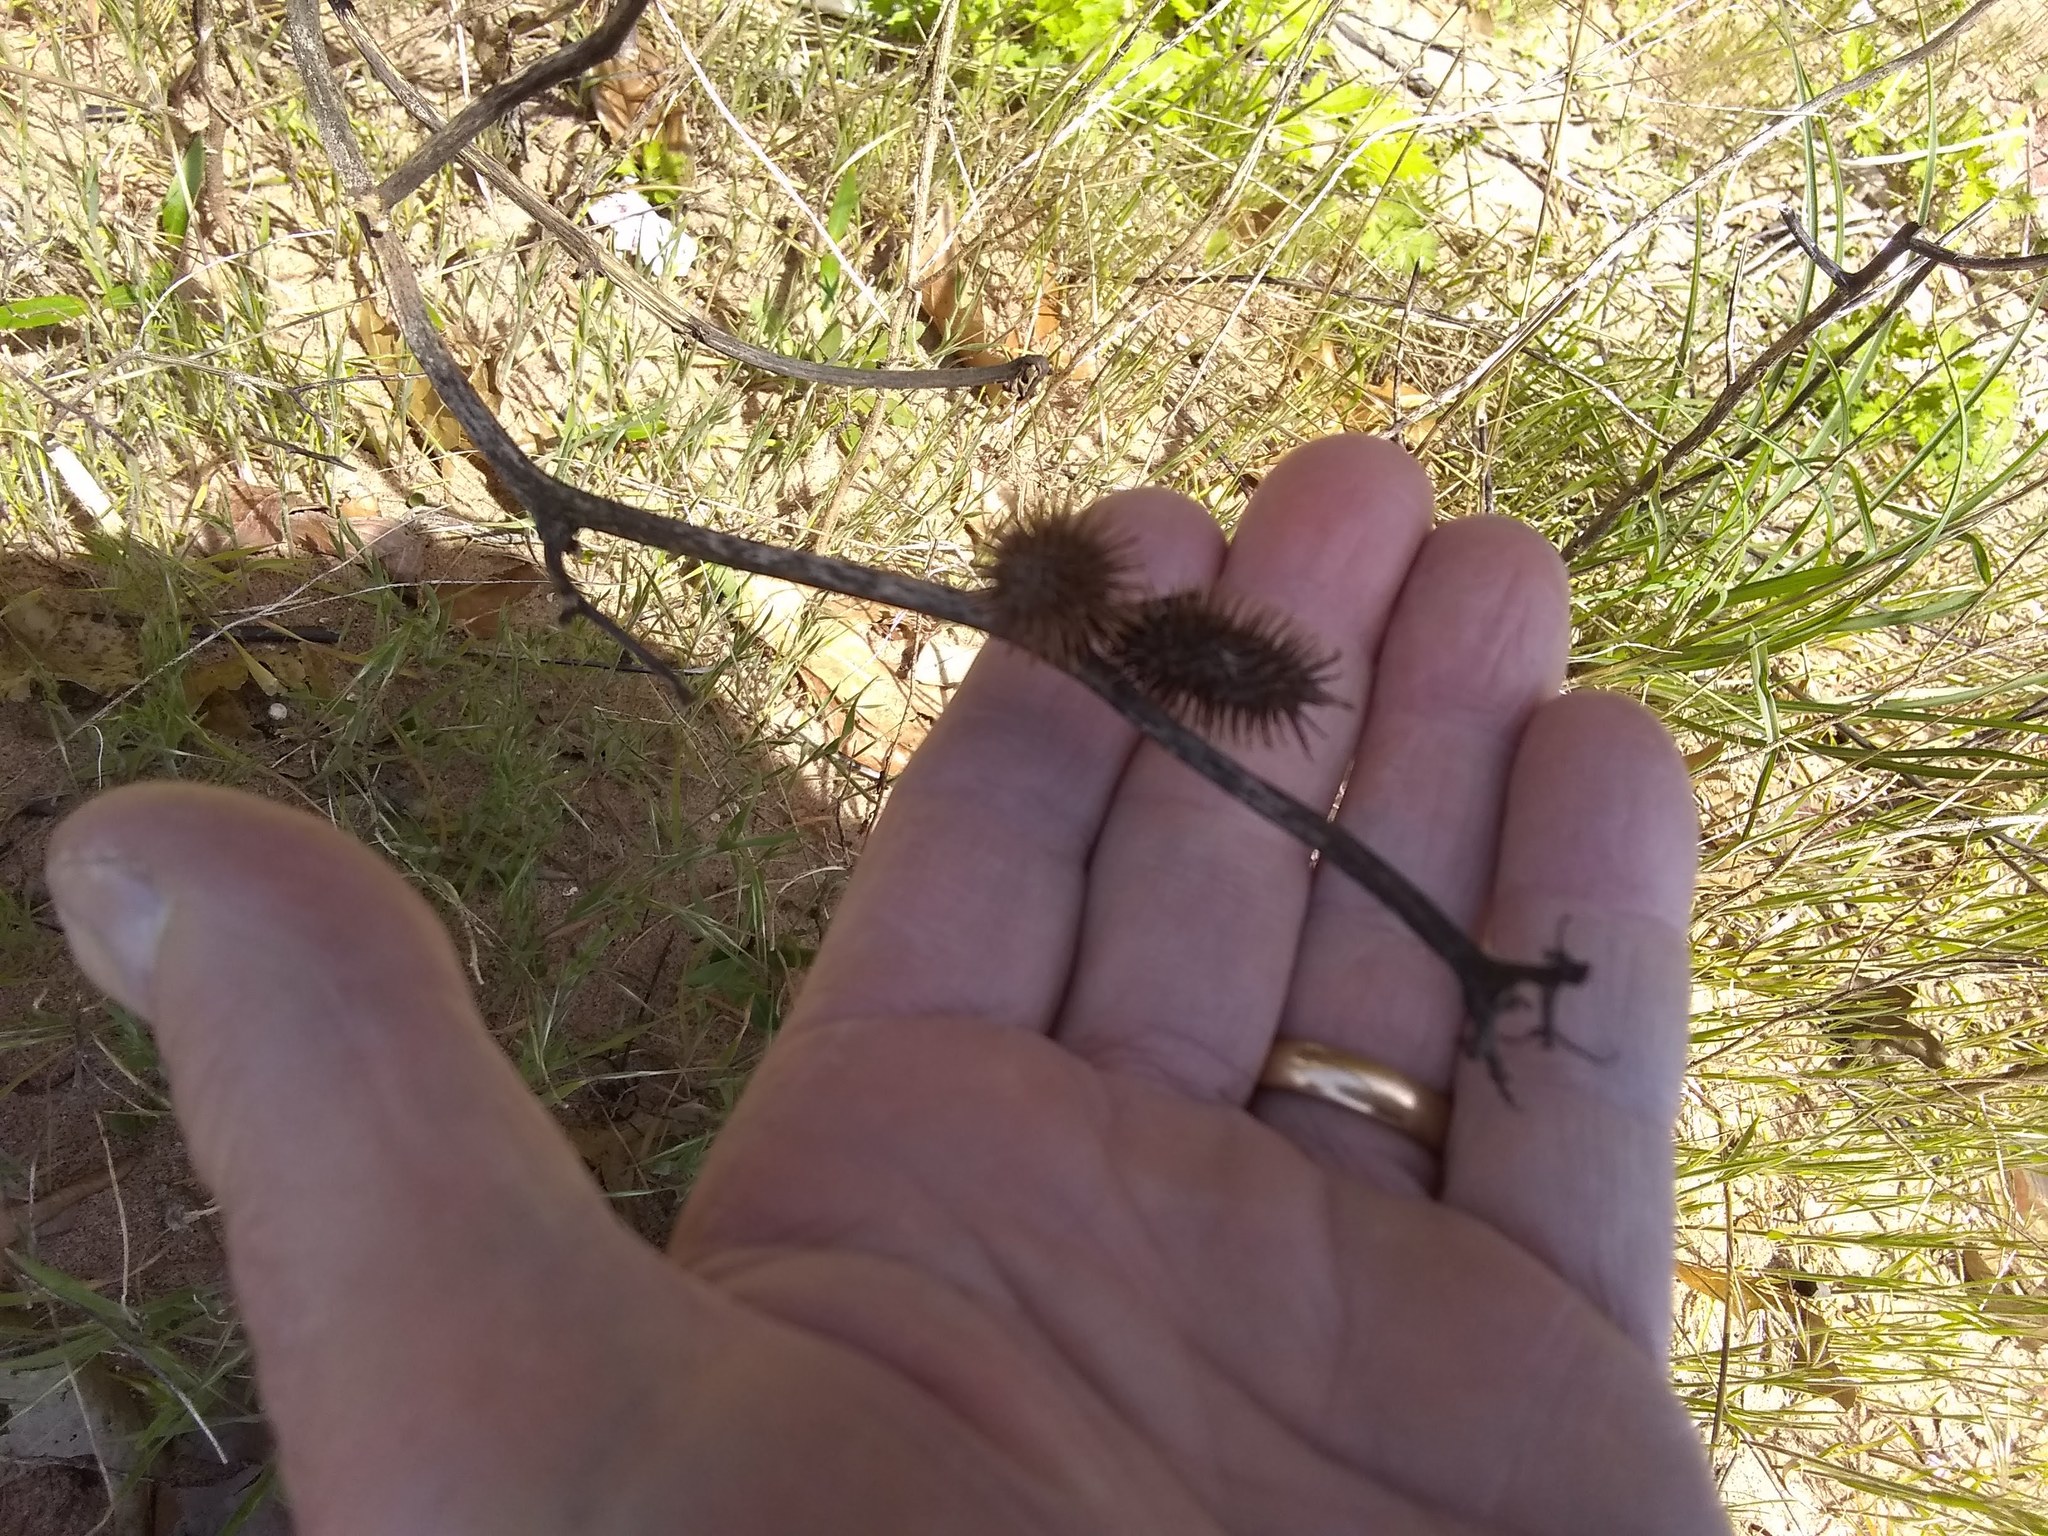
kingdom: Plantae
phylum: Tracheophyta
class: Magnoliopsida
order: Asterales
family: Asteraceae
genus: Xanthium
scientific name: Xanthium strumarium
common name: Rough cocklebur
